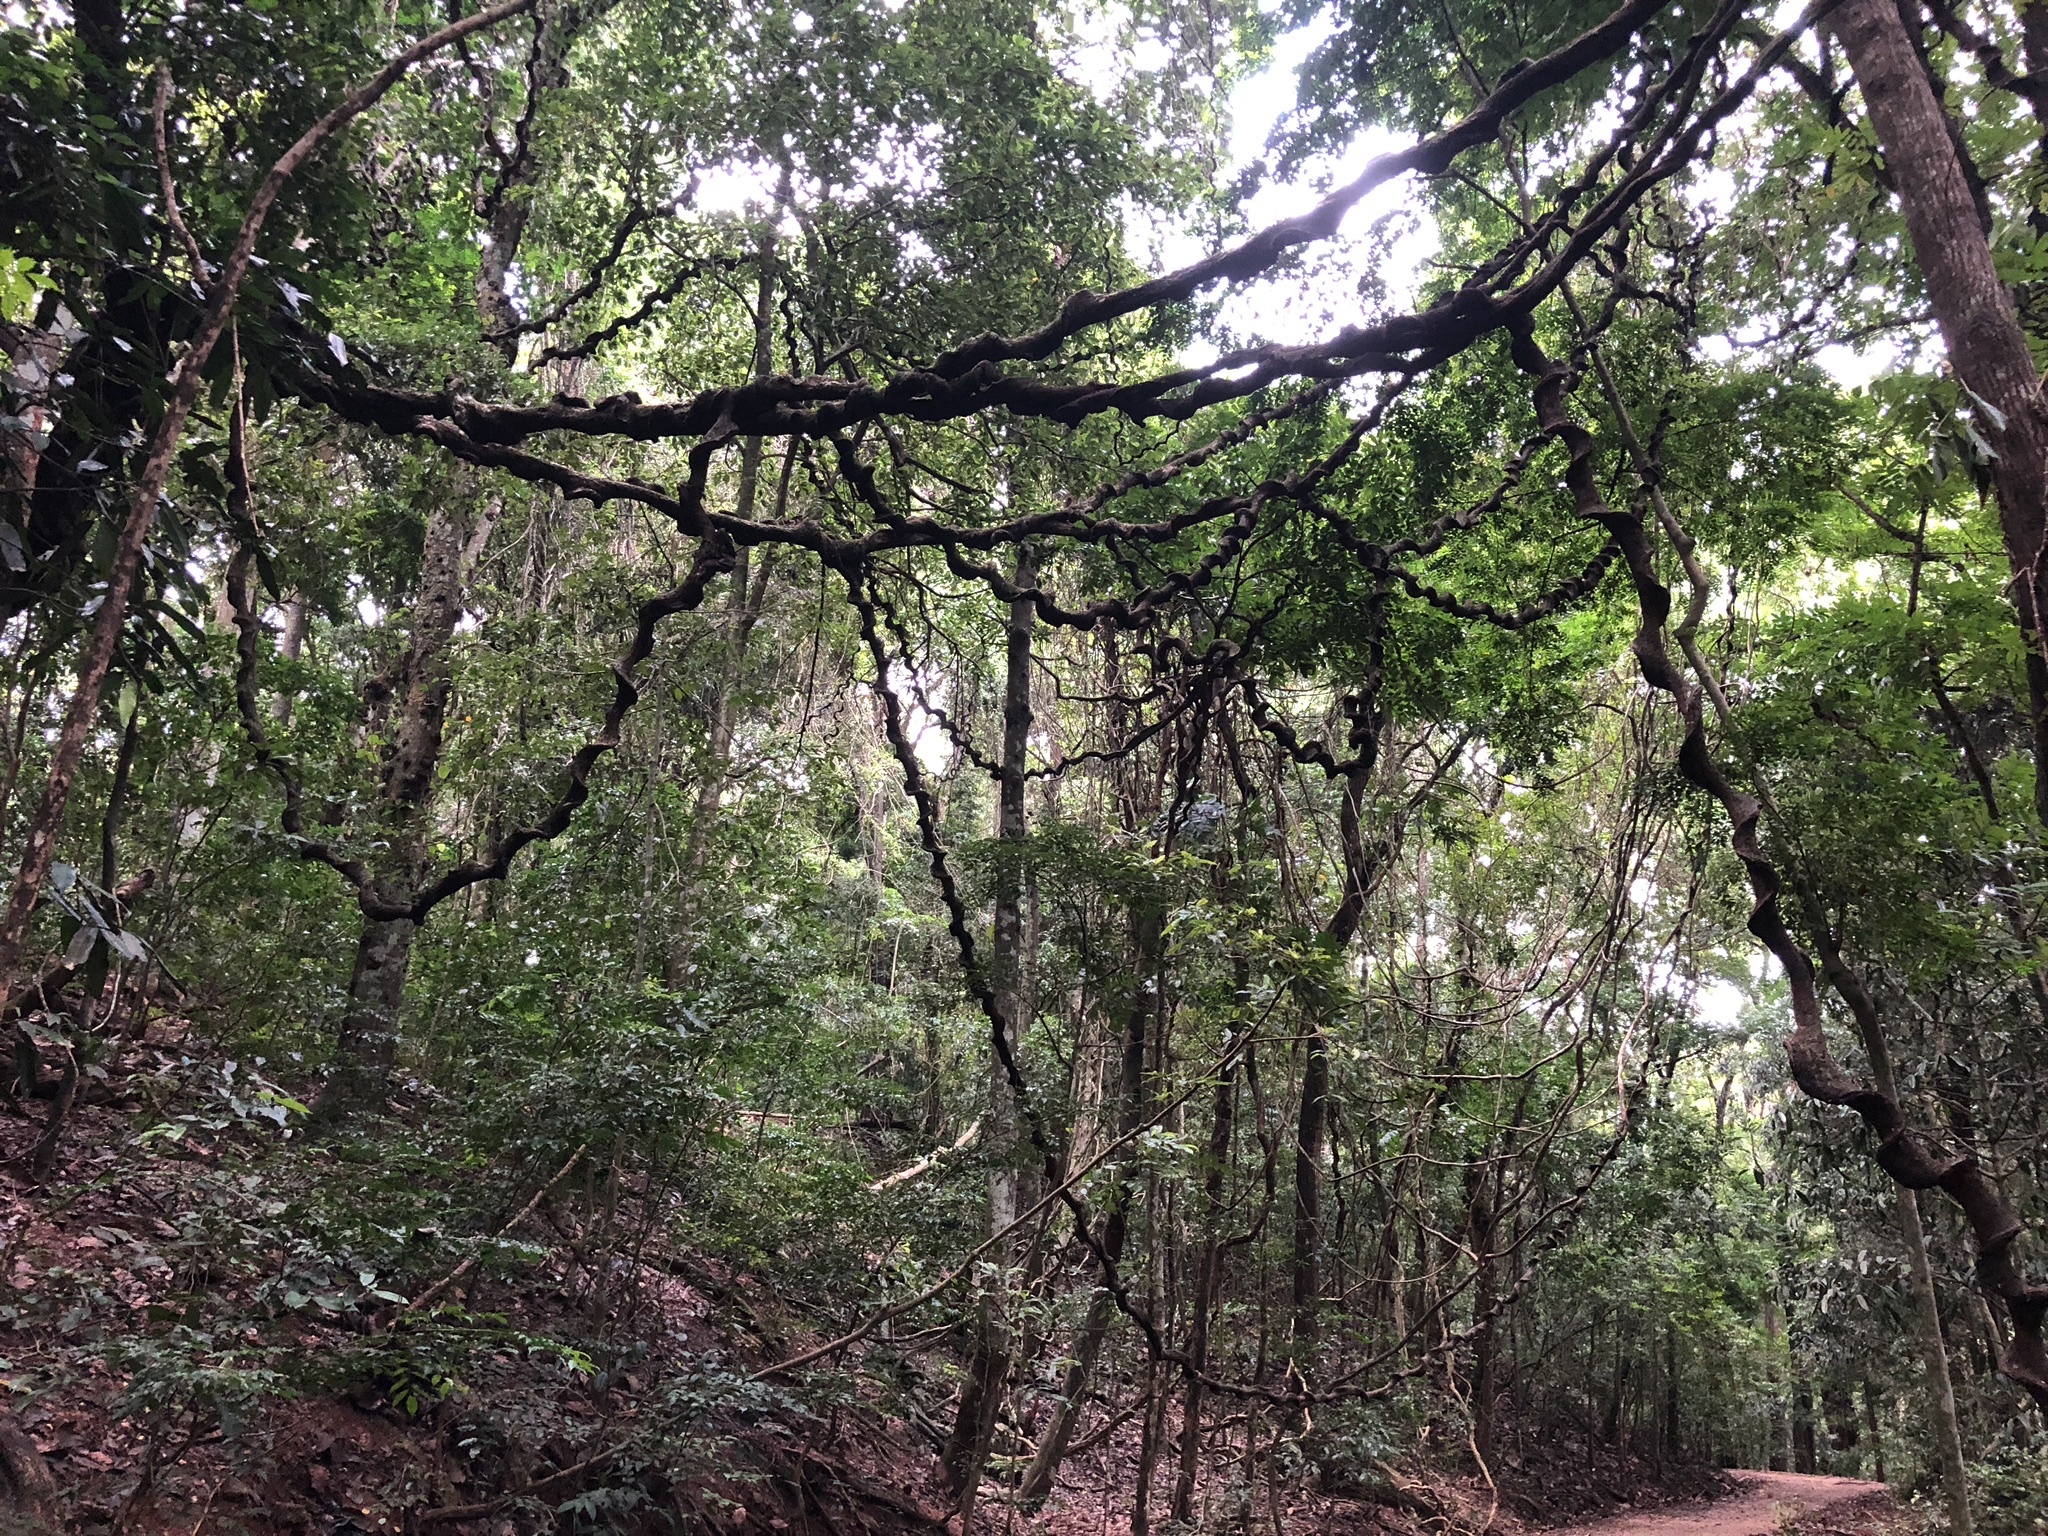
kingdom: Plantae
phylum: Tracheophyta
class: Magnoliopsida
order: Fabales
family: Fabaceae
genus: Entada
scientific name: Entada rheedei
